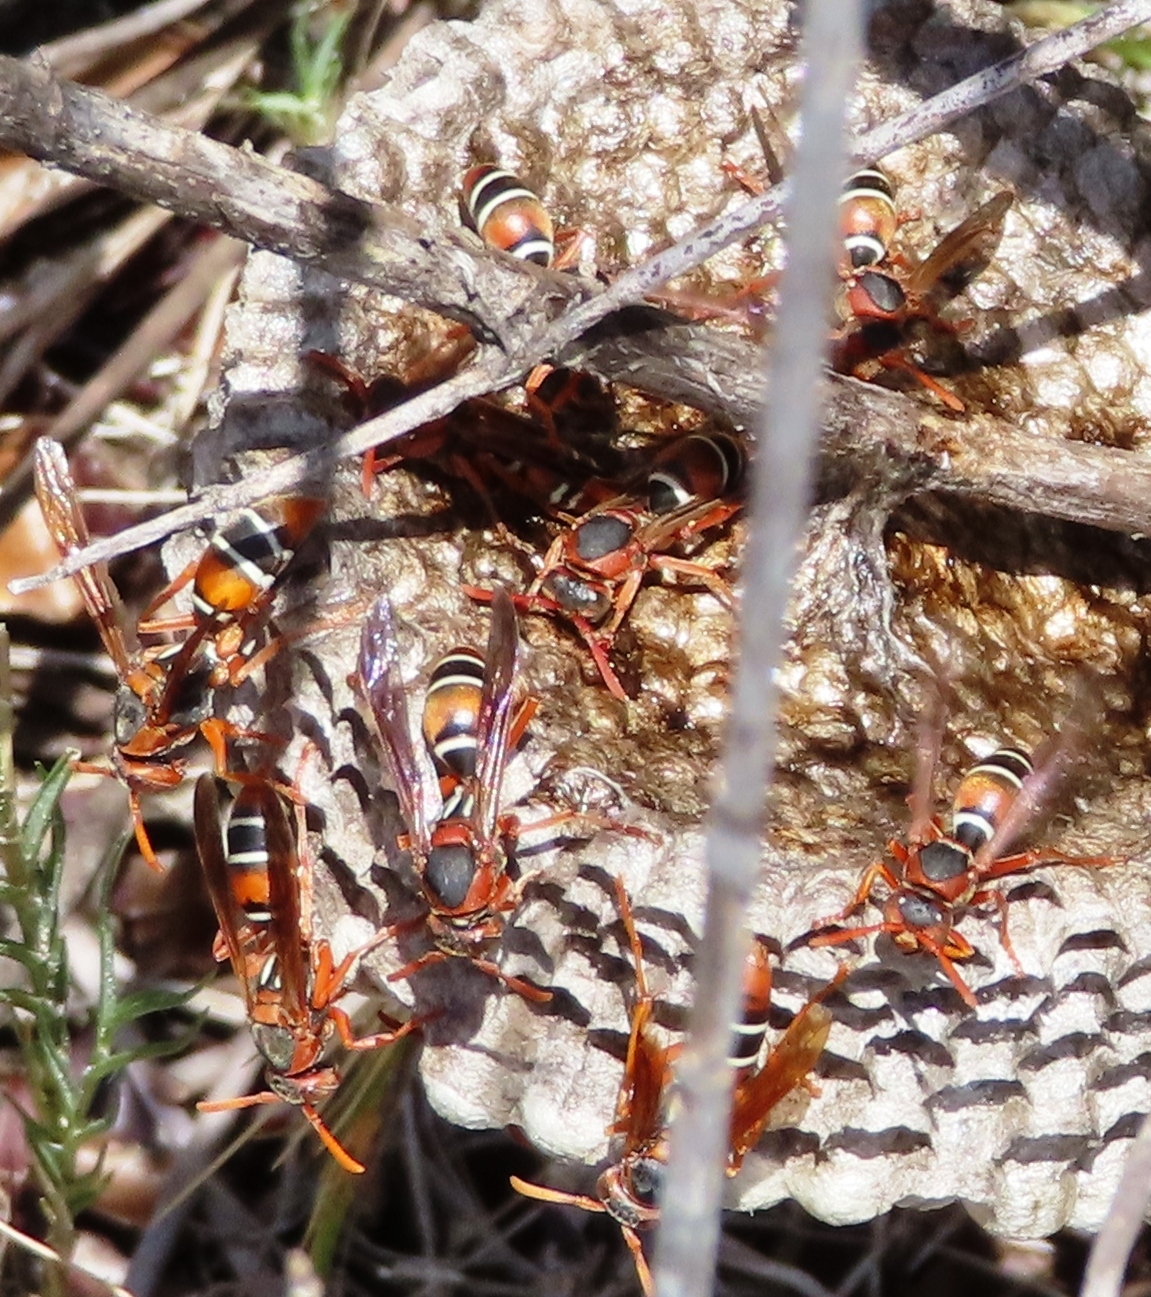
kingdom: Animalia
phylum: Arthropoda
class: Insecta
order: Hymenoptera
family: Eumenidae
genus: Polistes
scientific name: Polistes marginalis
